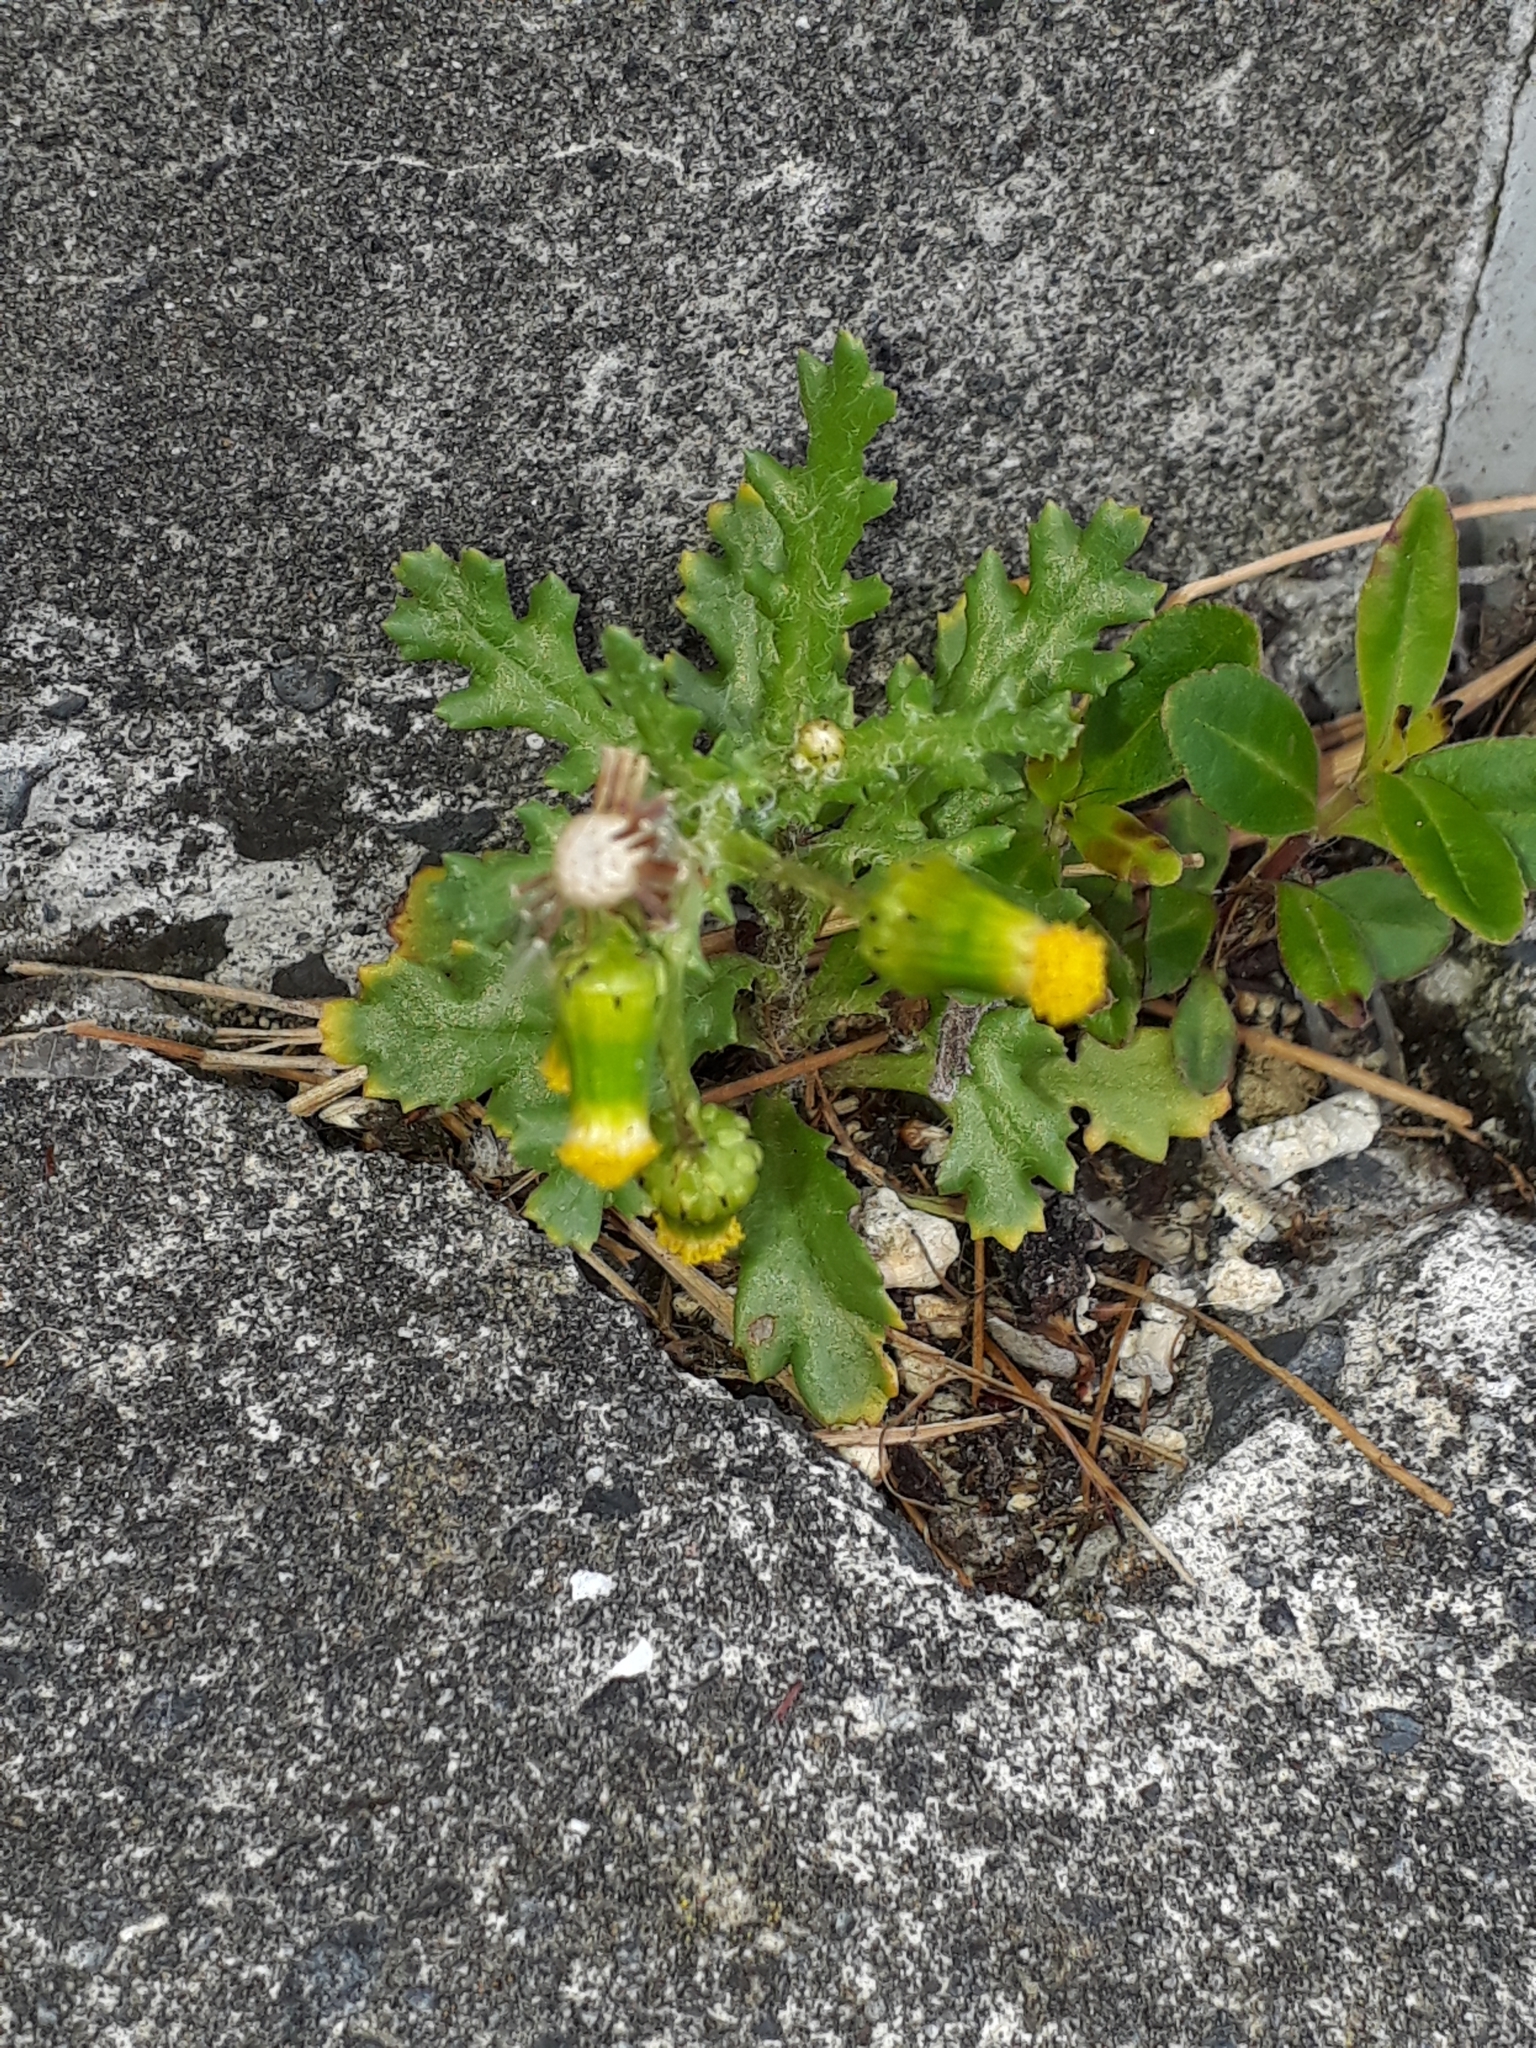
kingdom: Plantae
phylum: Tracheophyta
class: Magnoliopsida
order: Asterales
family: Asteraceae
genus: Senecio
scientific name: Senecio vulgaris
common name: Old-man-in-the-spring
